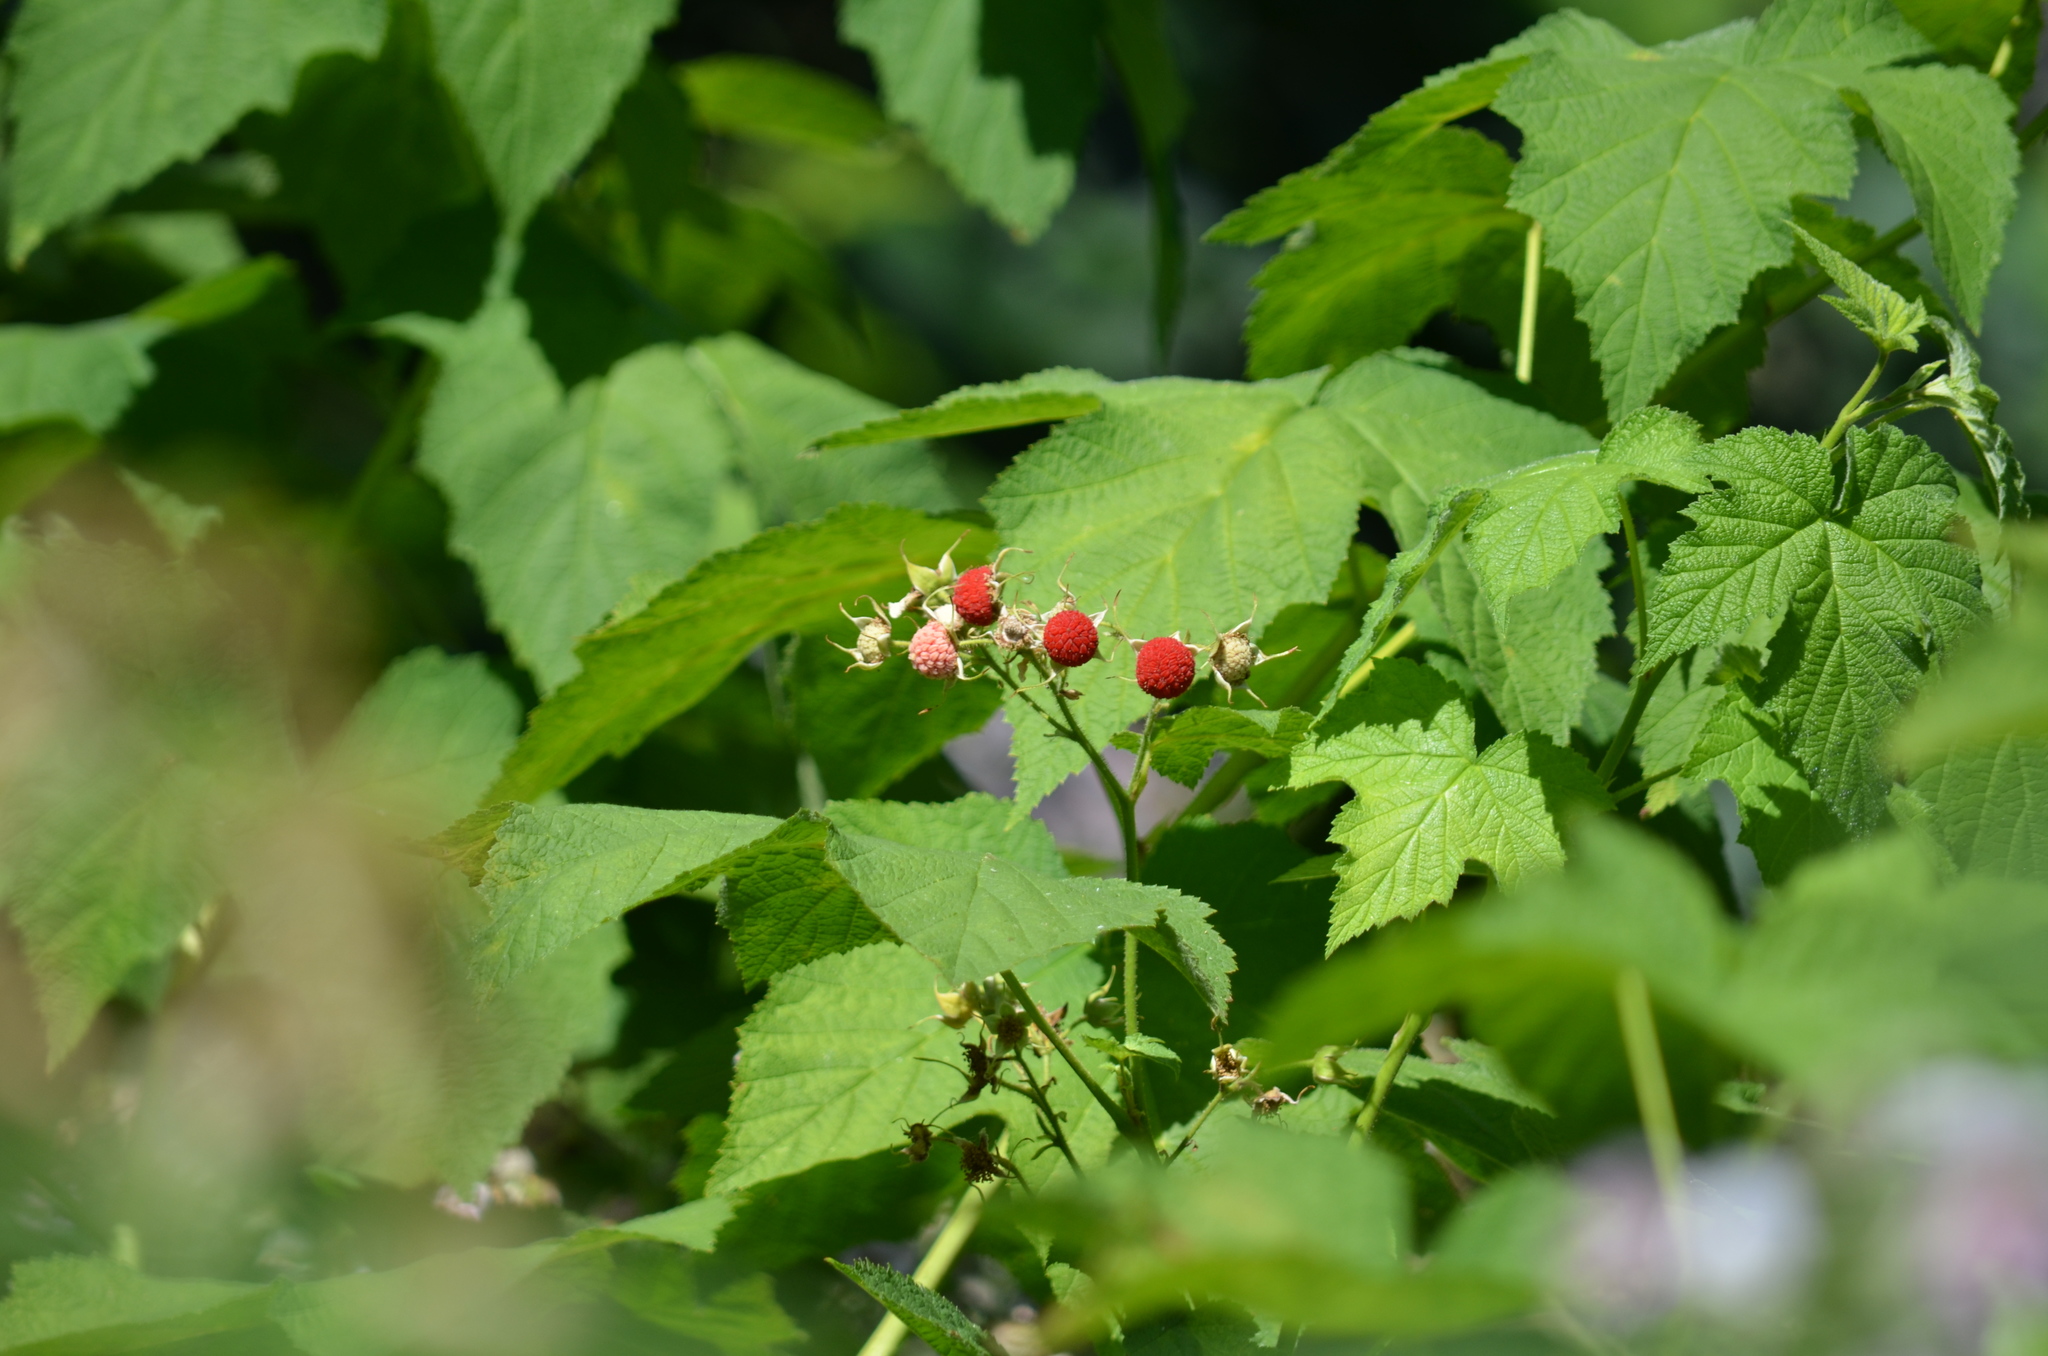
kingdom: Plantae
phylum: Tracheophyta
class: Magnoliopsida
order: Rosales
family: Rosaceae
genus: Rubus
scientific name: Rubus parviflorus
